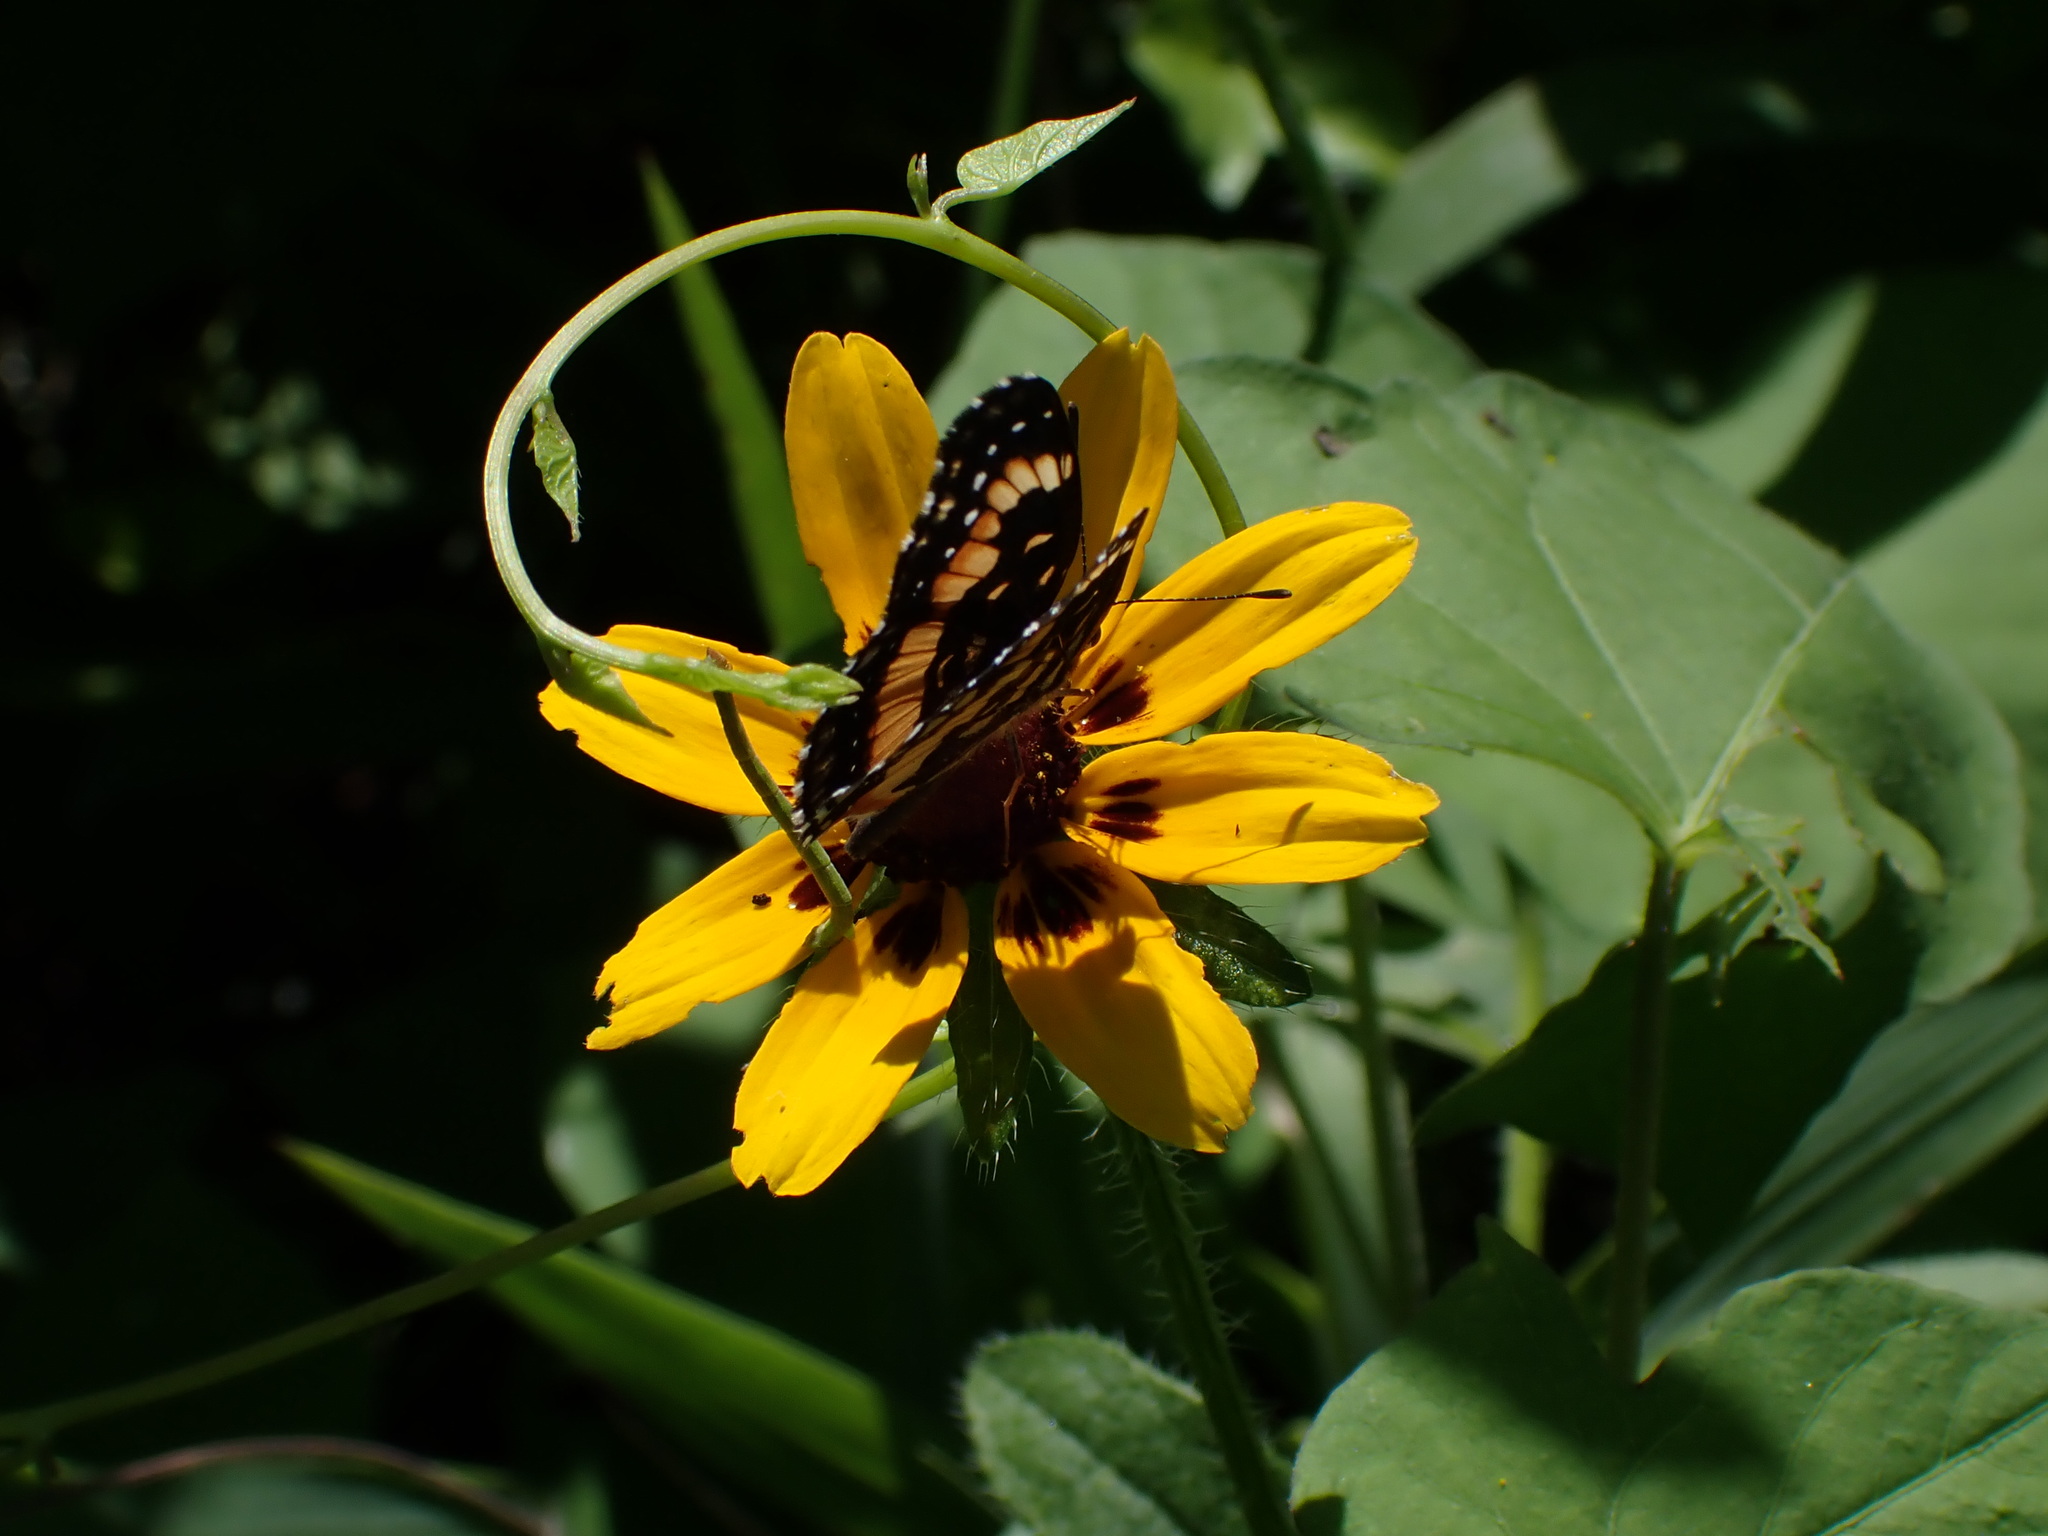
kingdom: Animalia
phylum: Arthropoda
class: Insecta
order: Lepidoptera
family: Nymphalidae
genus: Chlosyne
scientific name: Chlosyne lacinia
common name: Bordered patch
